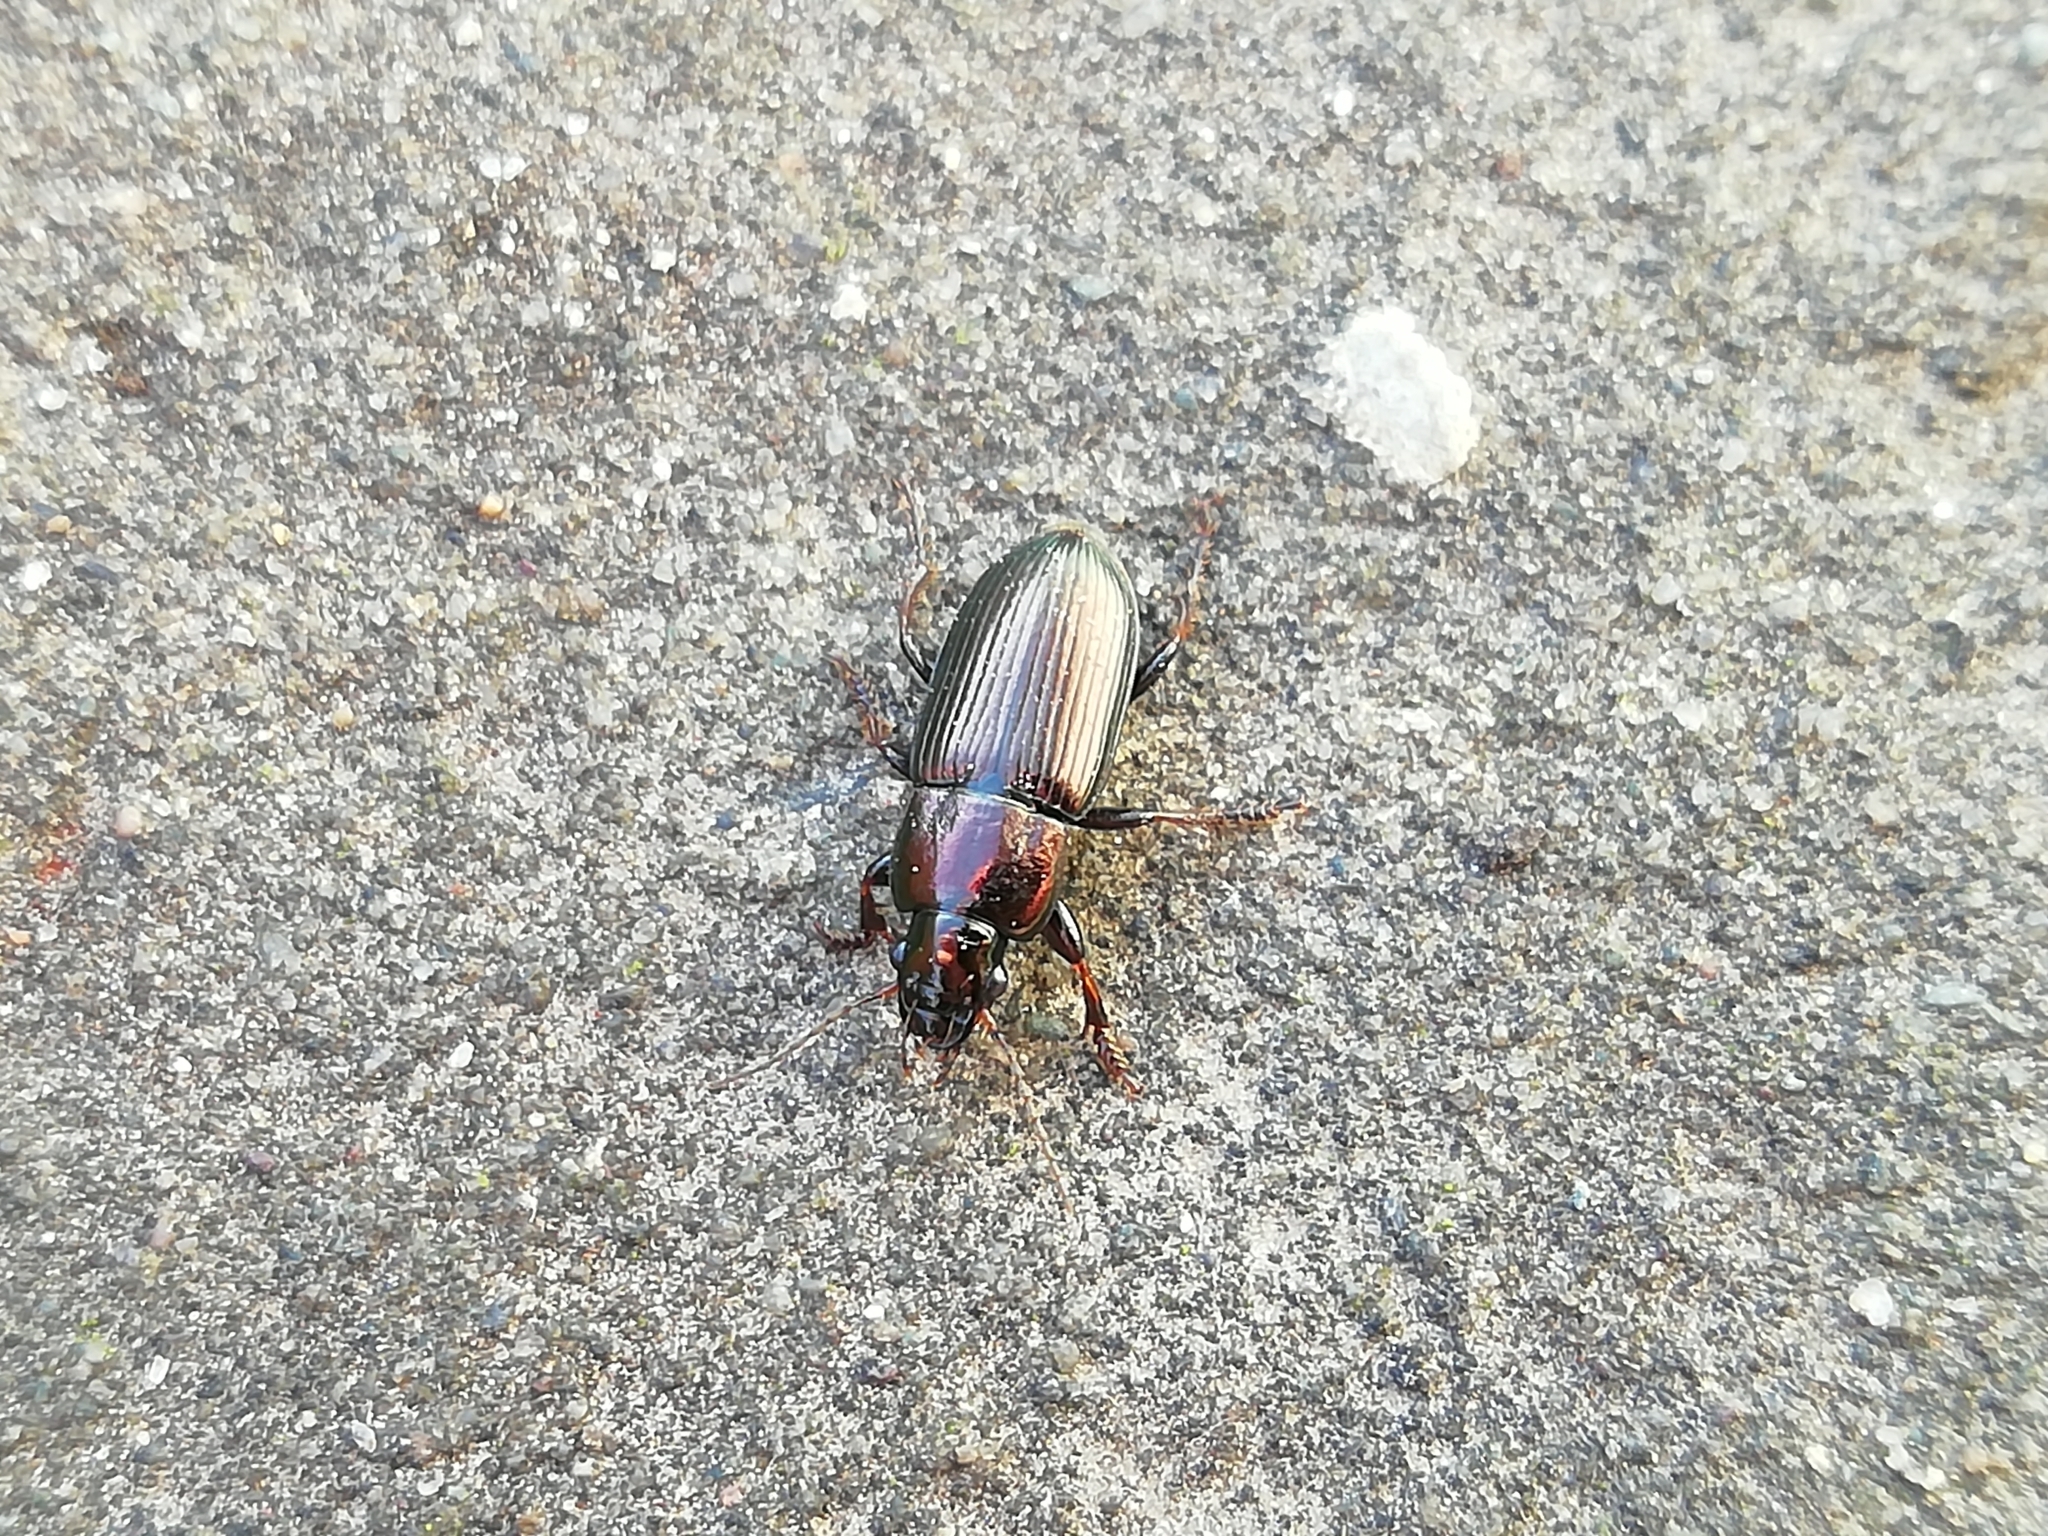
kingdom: Animalia
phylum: Arthropoda
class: Insecta
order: Coleoptera
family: Carabidae
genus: Harpalus
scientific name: Harpalus distinguendus
